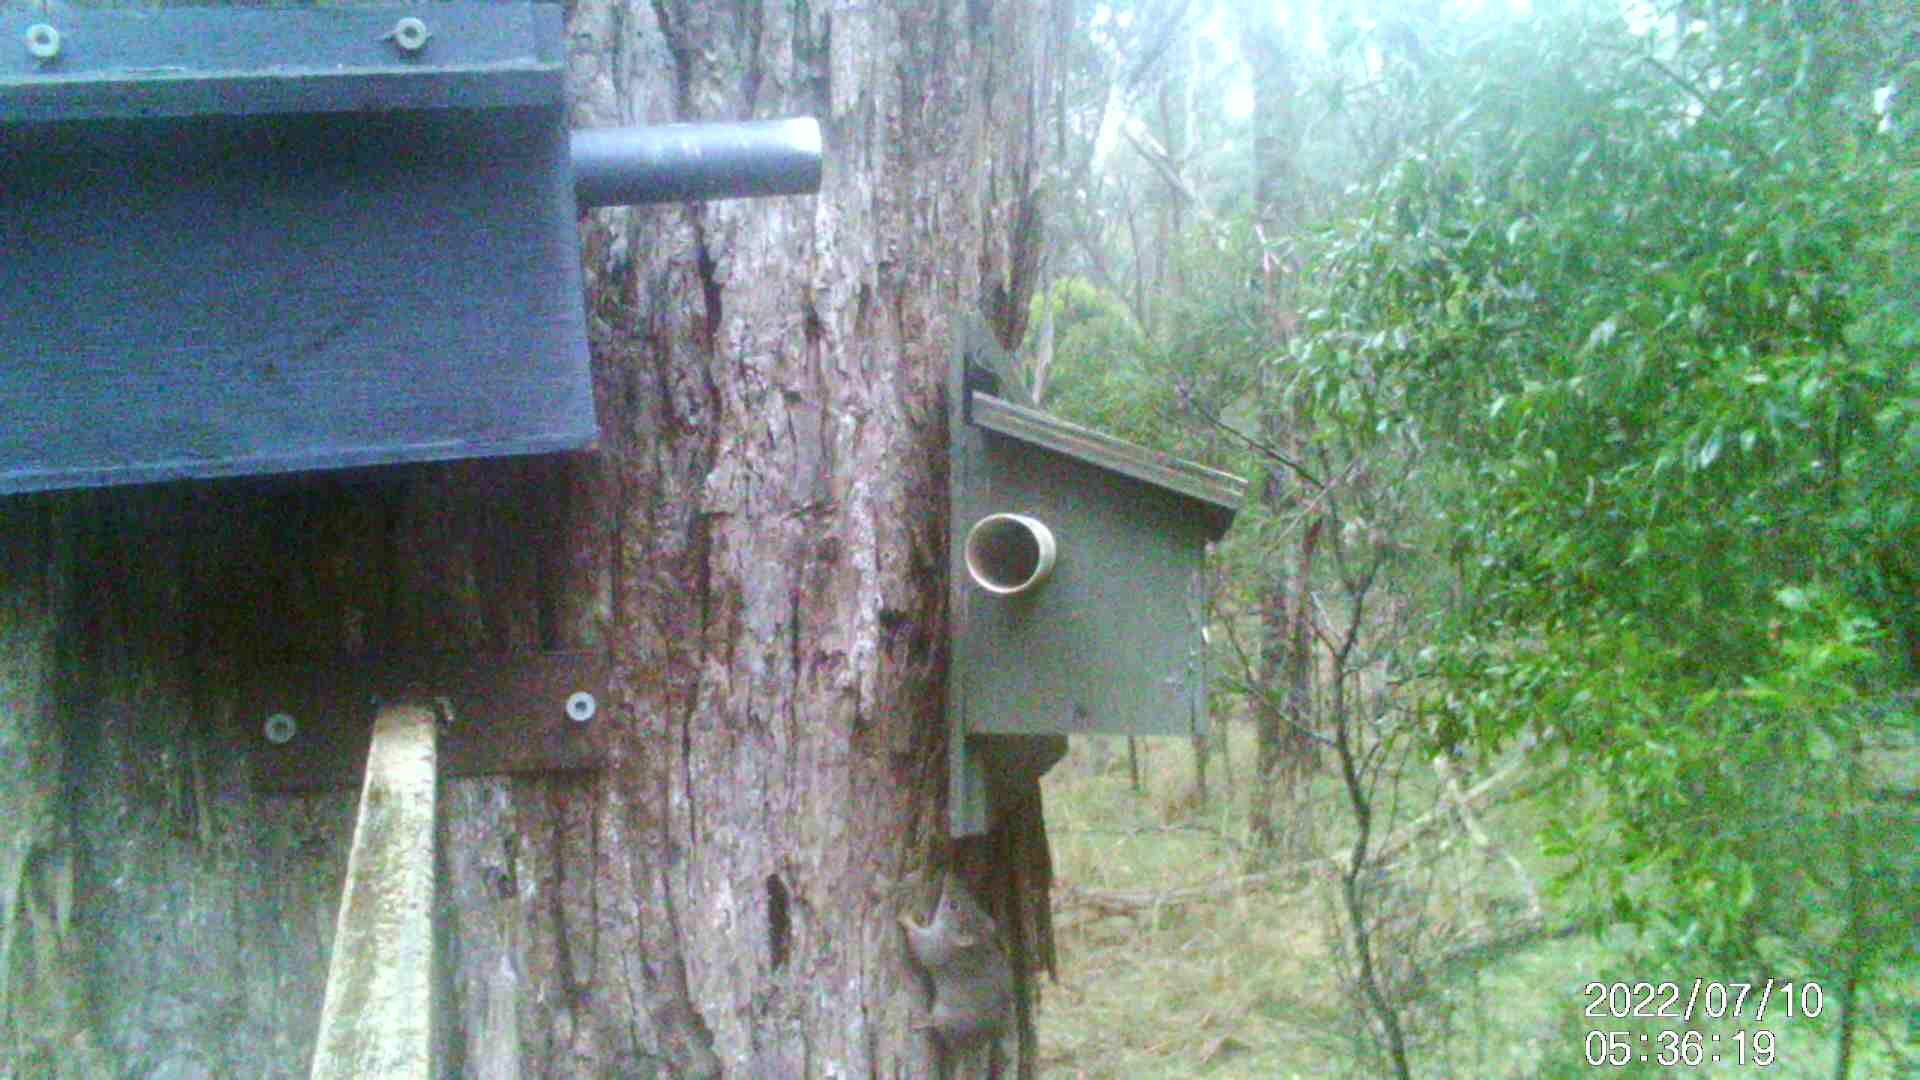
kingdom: Animalia
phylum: Chordata
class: Mammalia
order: Dasyuromorphia
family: Dasyuridae
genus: Antechinus
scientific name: Antechinus agilis
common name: Agile antechinus
